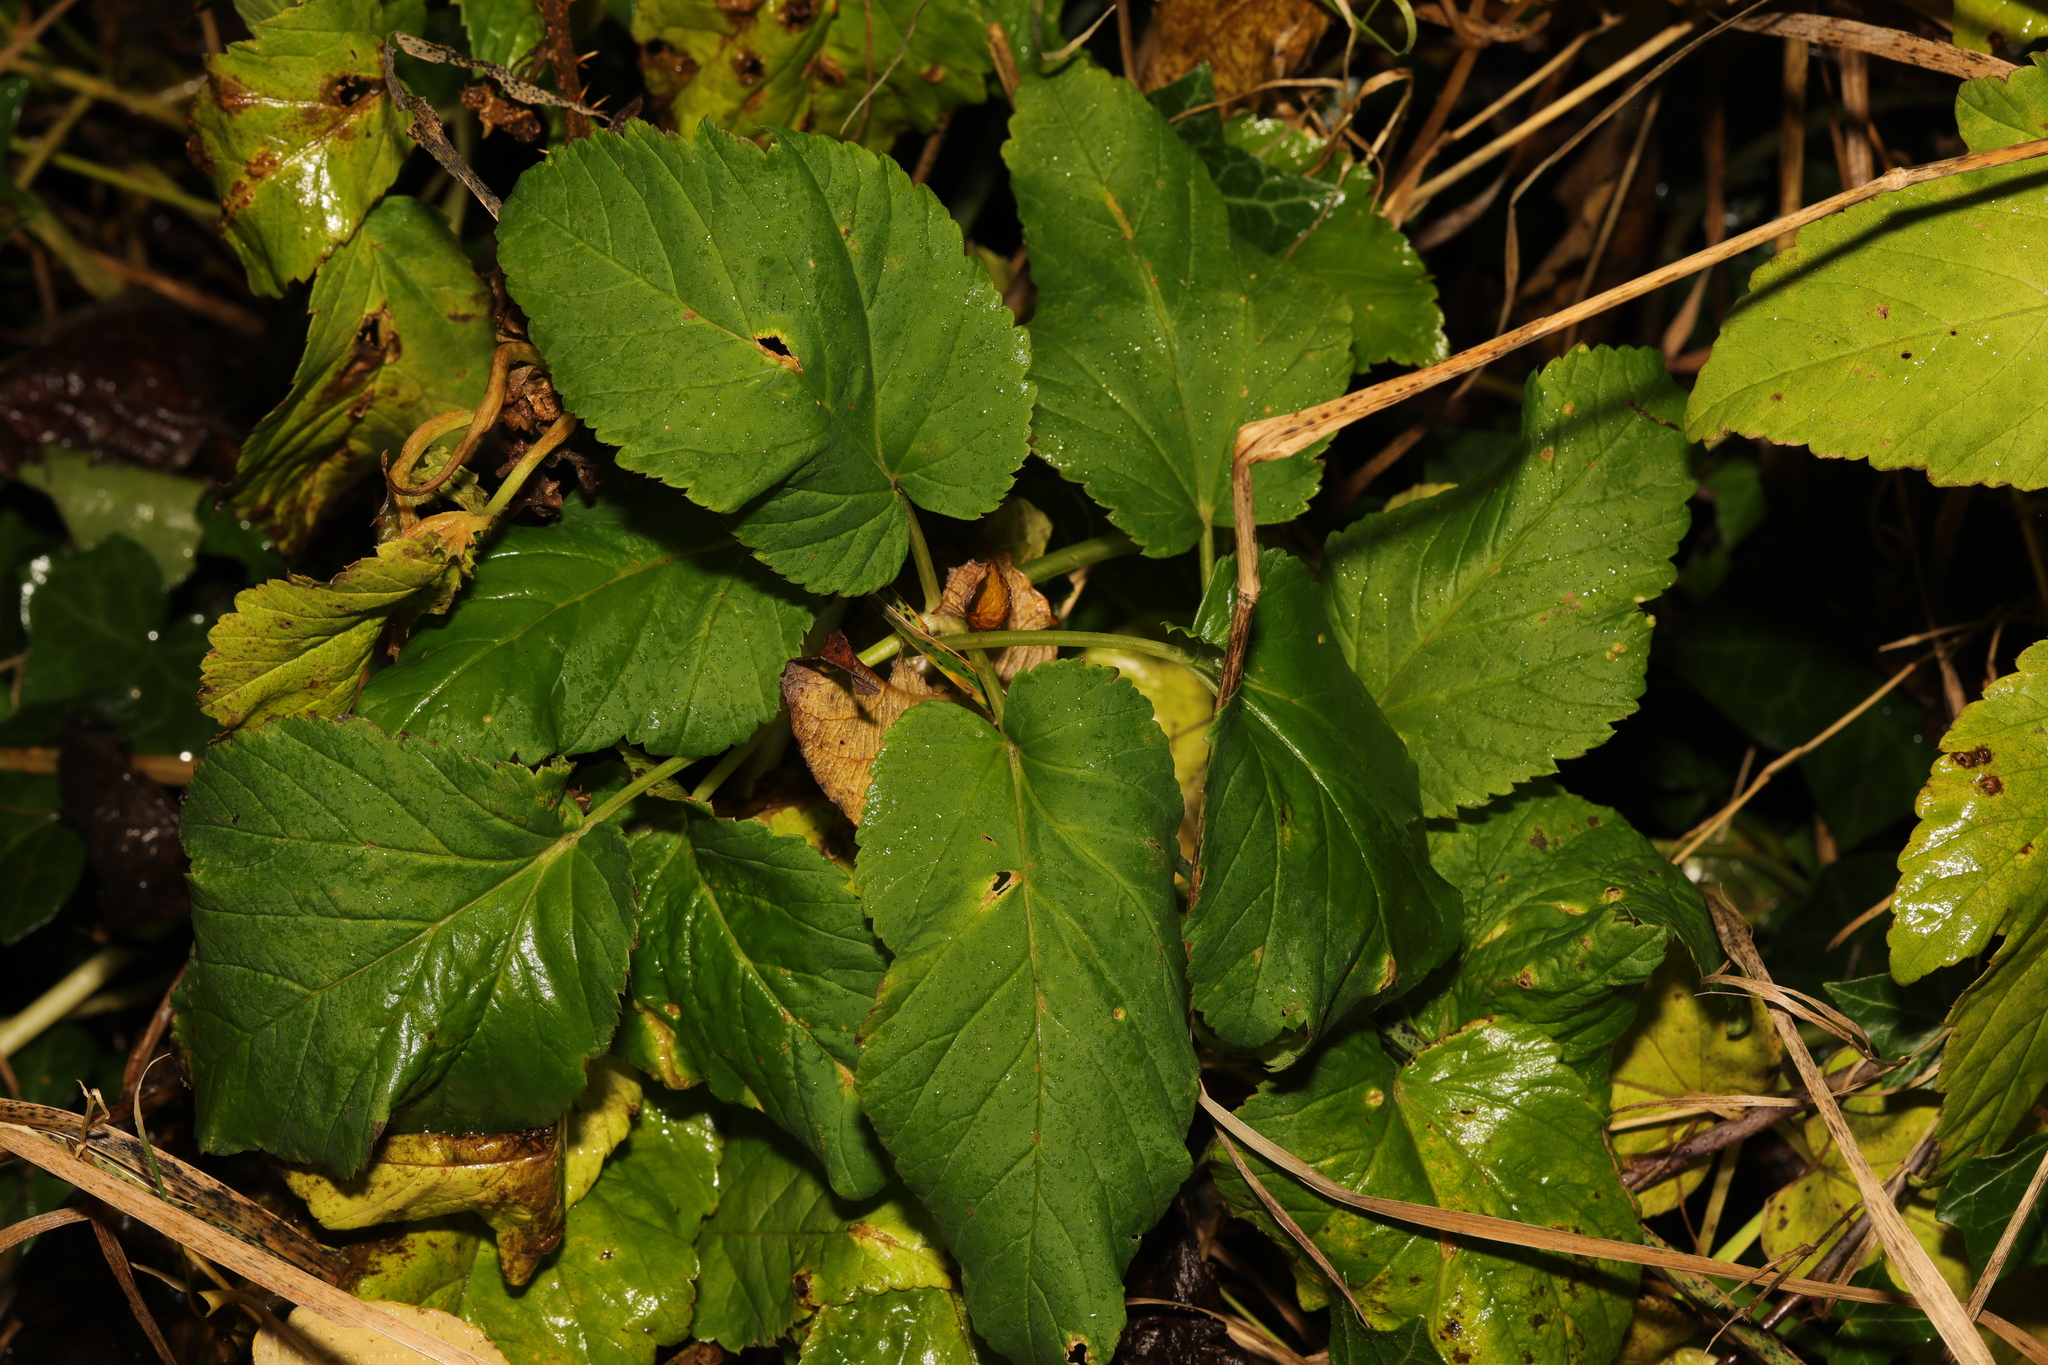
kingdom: Plantae
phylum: Tracheophyta
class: Magnoliopsida
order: Apiales
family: Apiaceae
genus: Aegopodium
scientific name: Aegopodium podagraria
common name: Ground-elder
